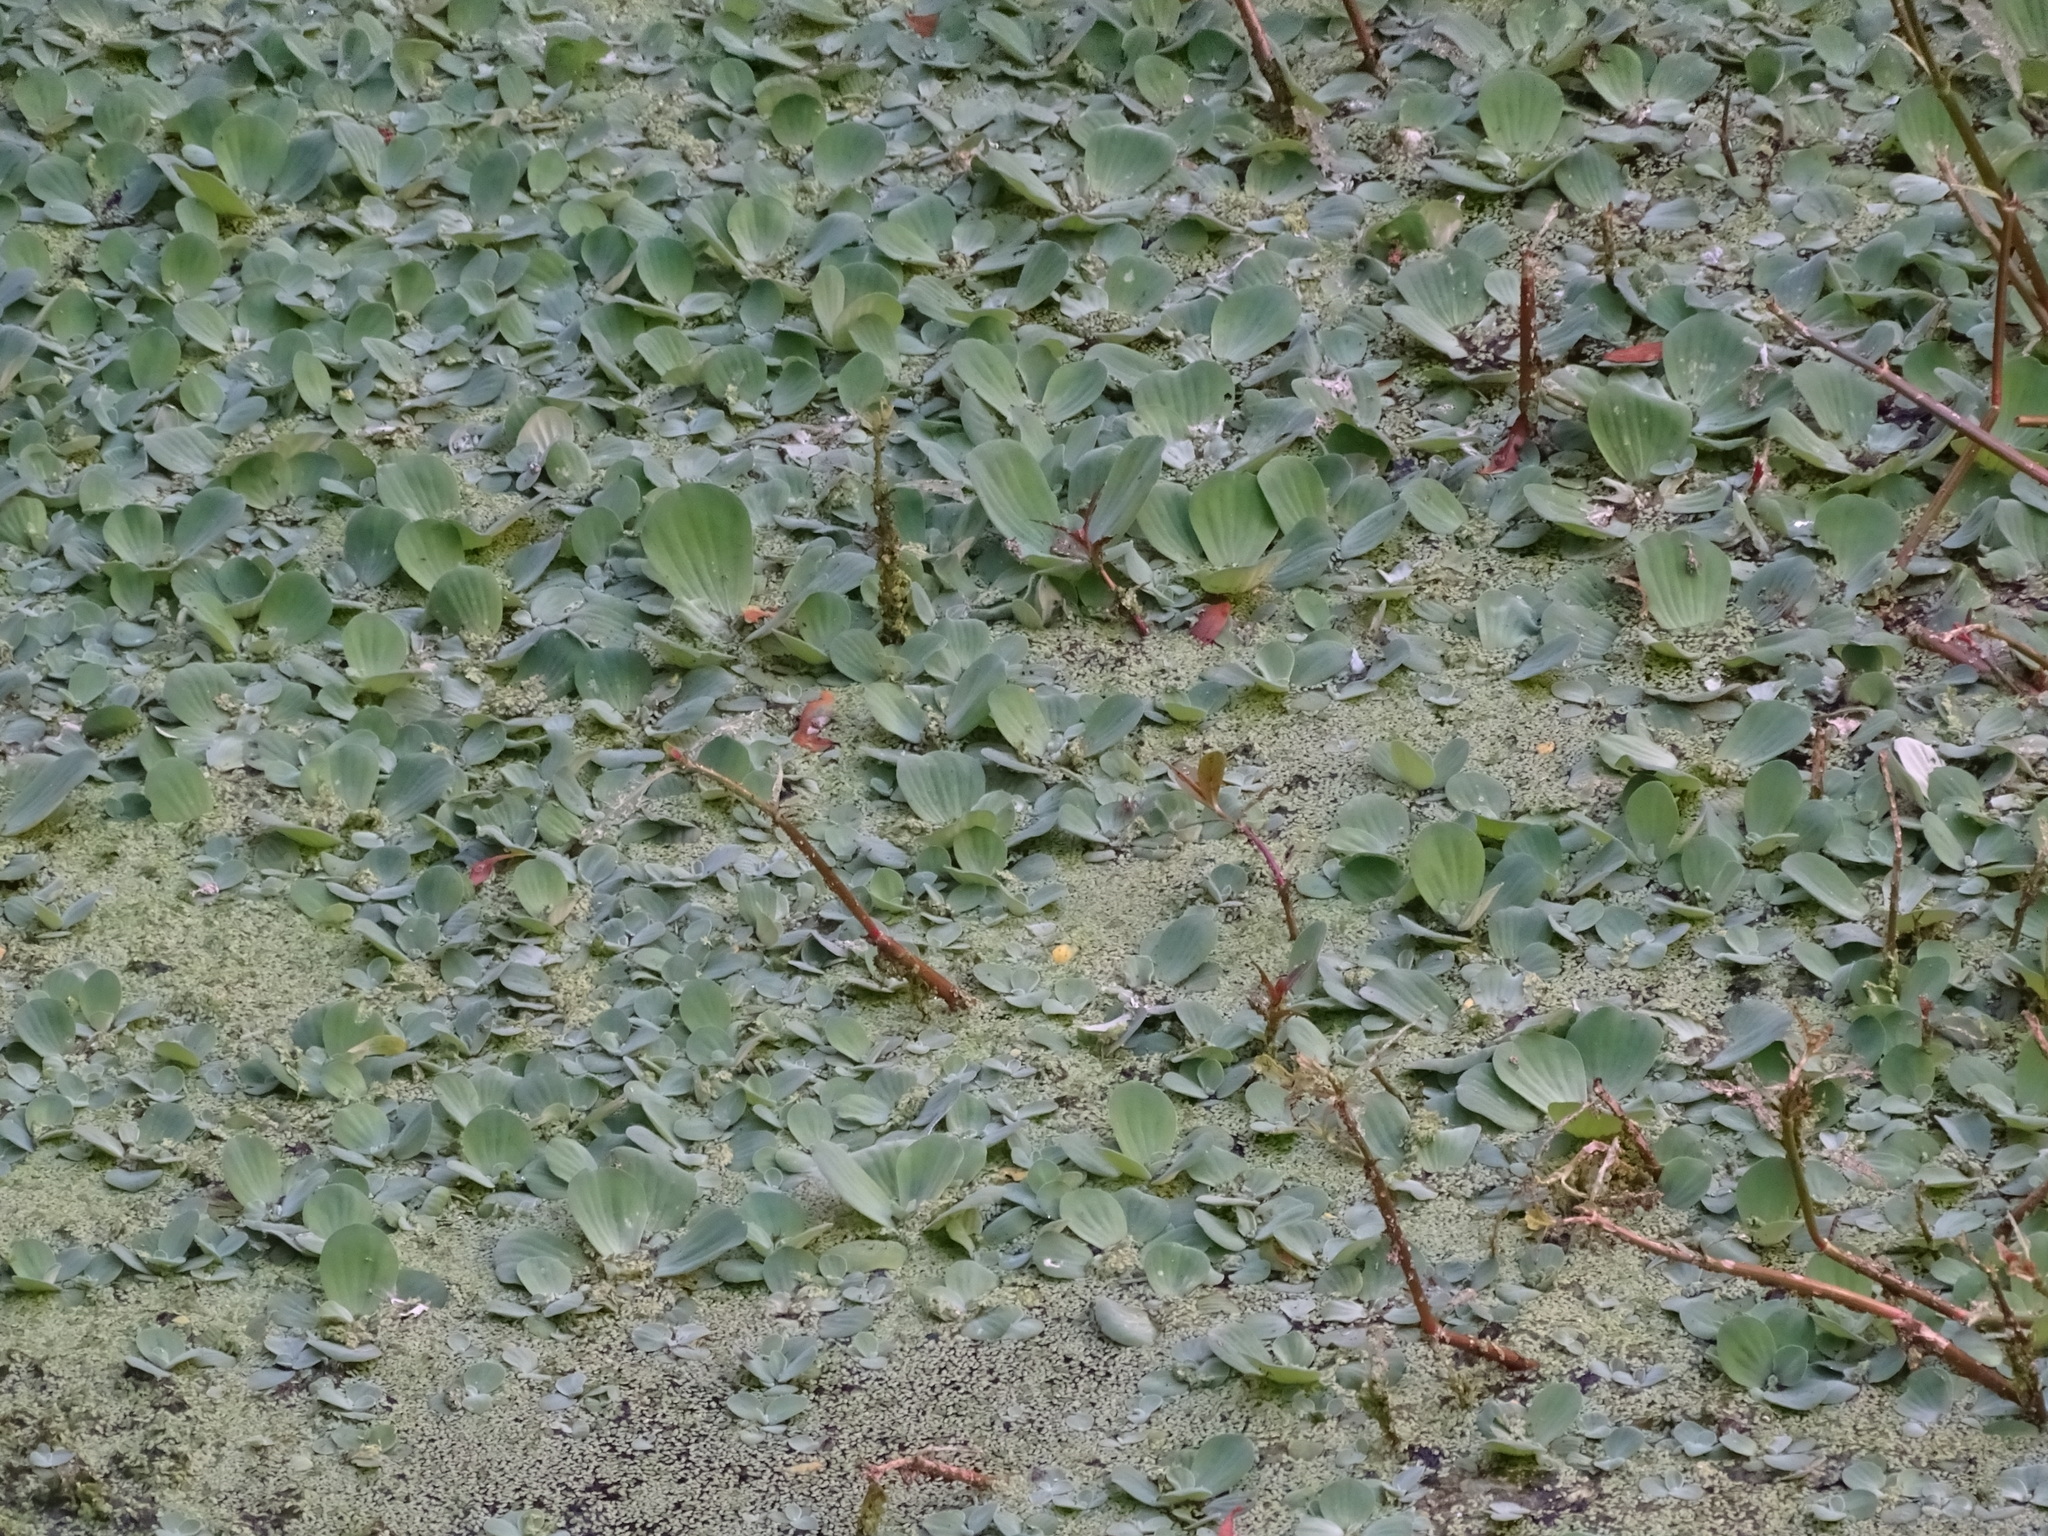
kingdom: Plantae
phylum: Tracheophyta
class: Liliopsida
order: Alismatales
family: Araceae
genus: Pistia
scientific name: Pistia stratiotes
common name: Water lettuce
